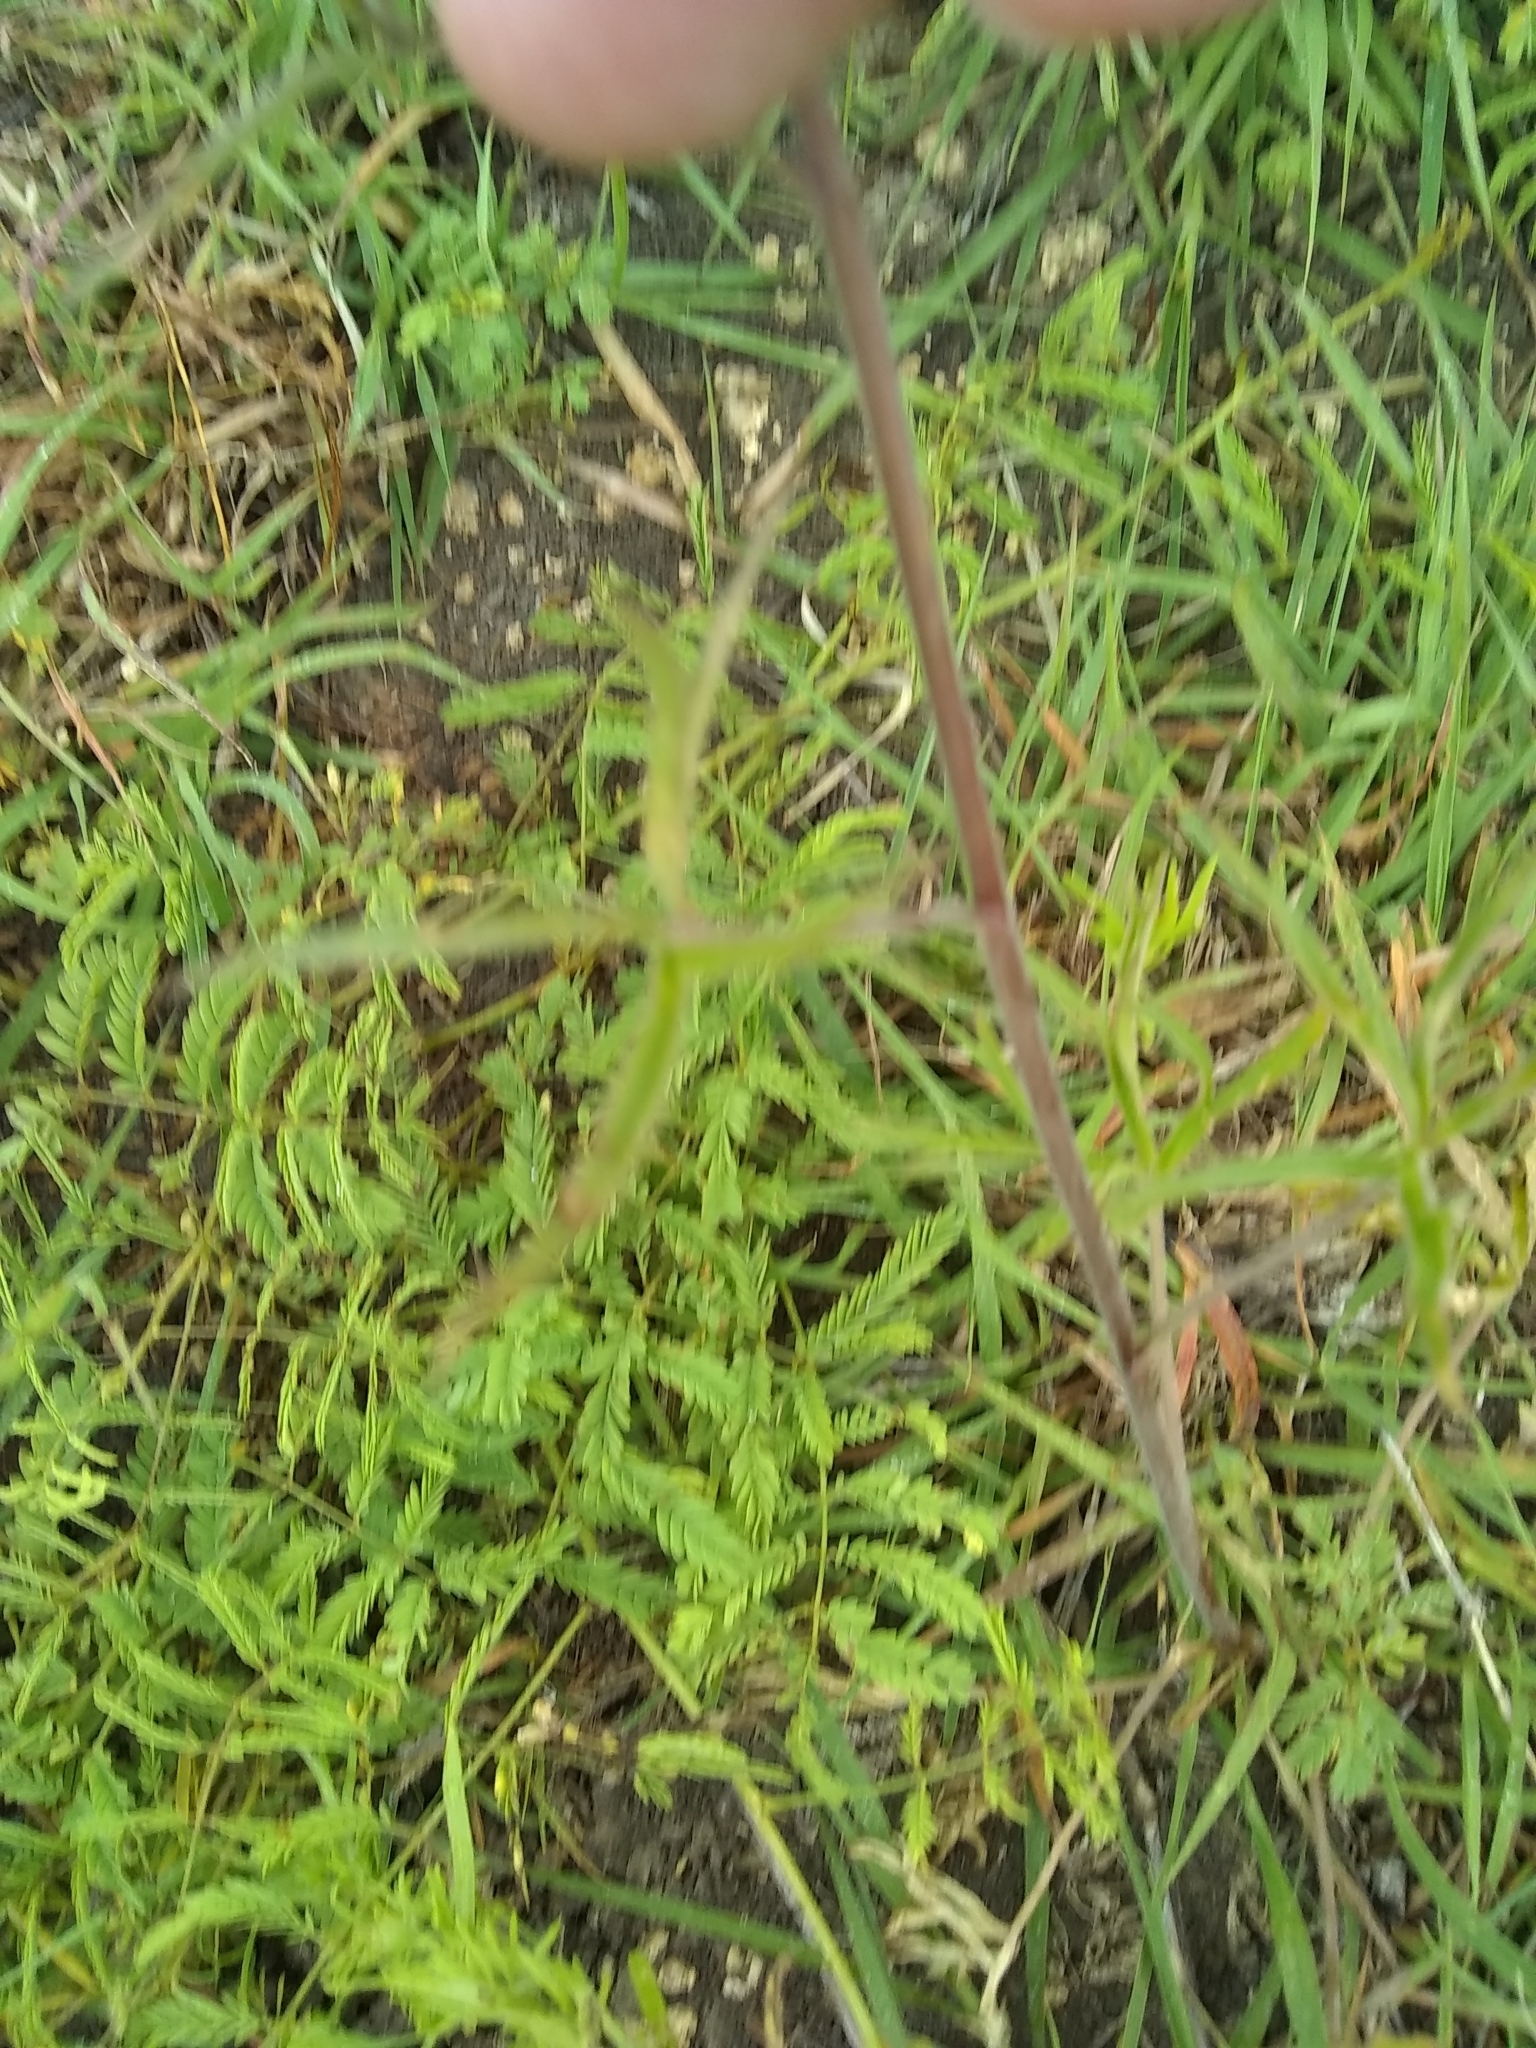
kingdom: Plantae
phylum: Tracheophyta
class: Magnoliopsida
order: Ranunculales
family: Ranunculaceae
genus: Delphinium
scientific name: Delphinium carolinianum
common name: Carolina larkspur
